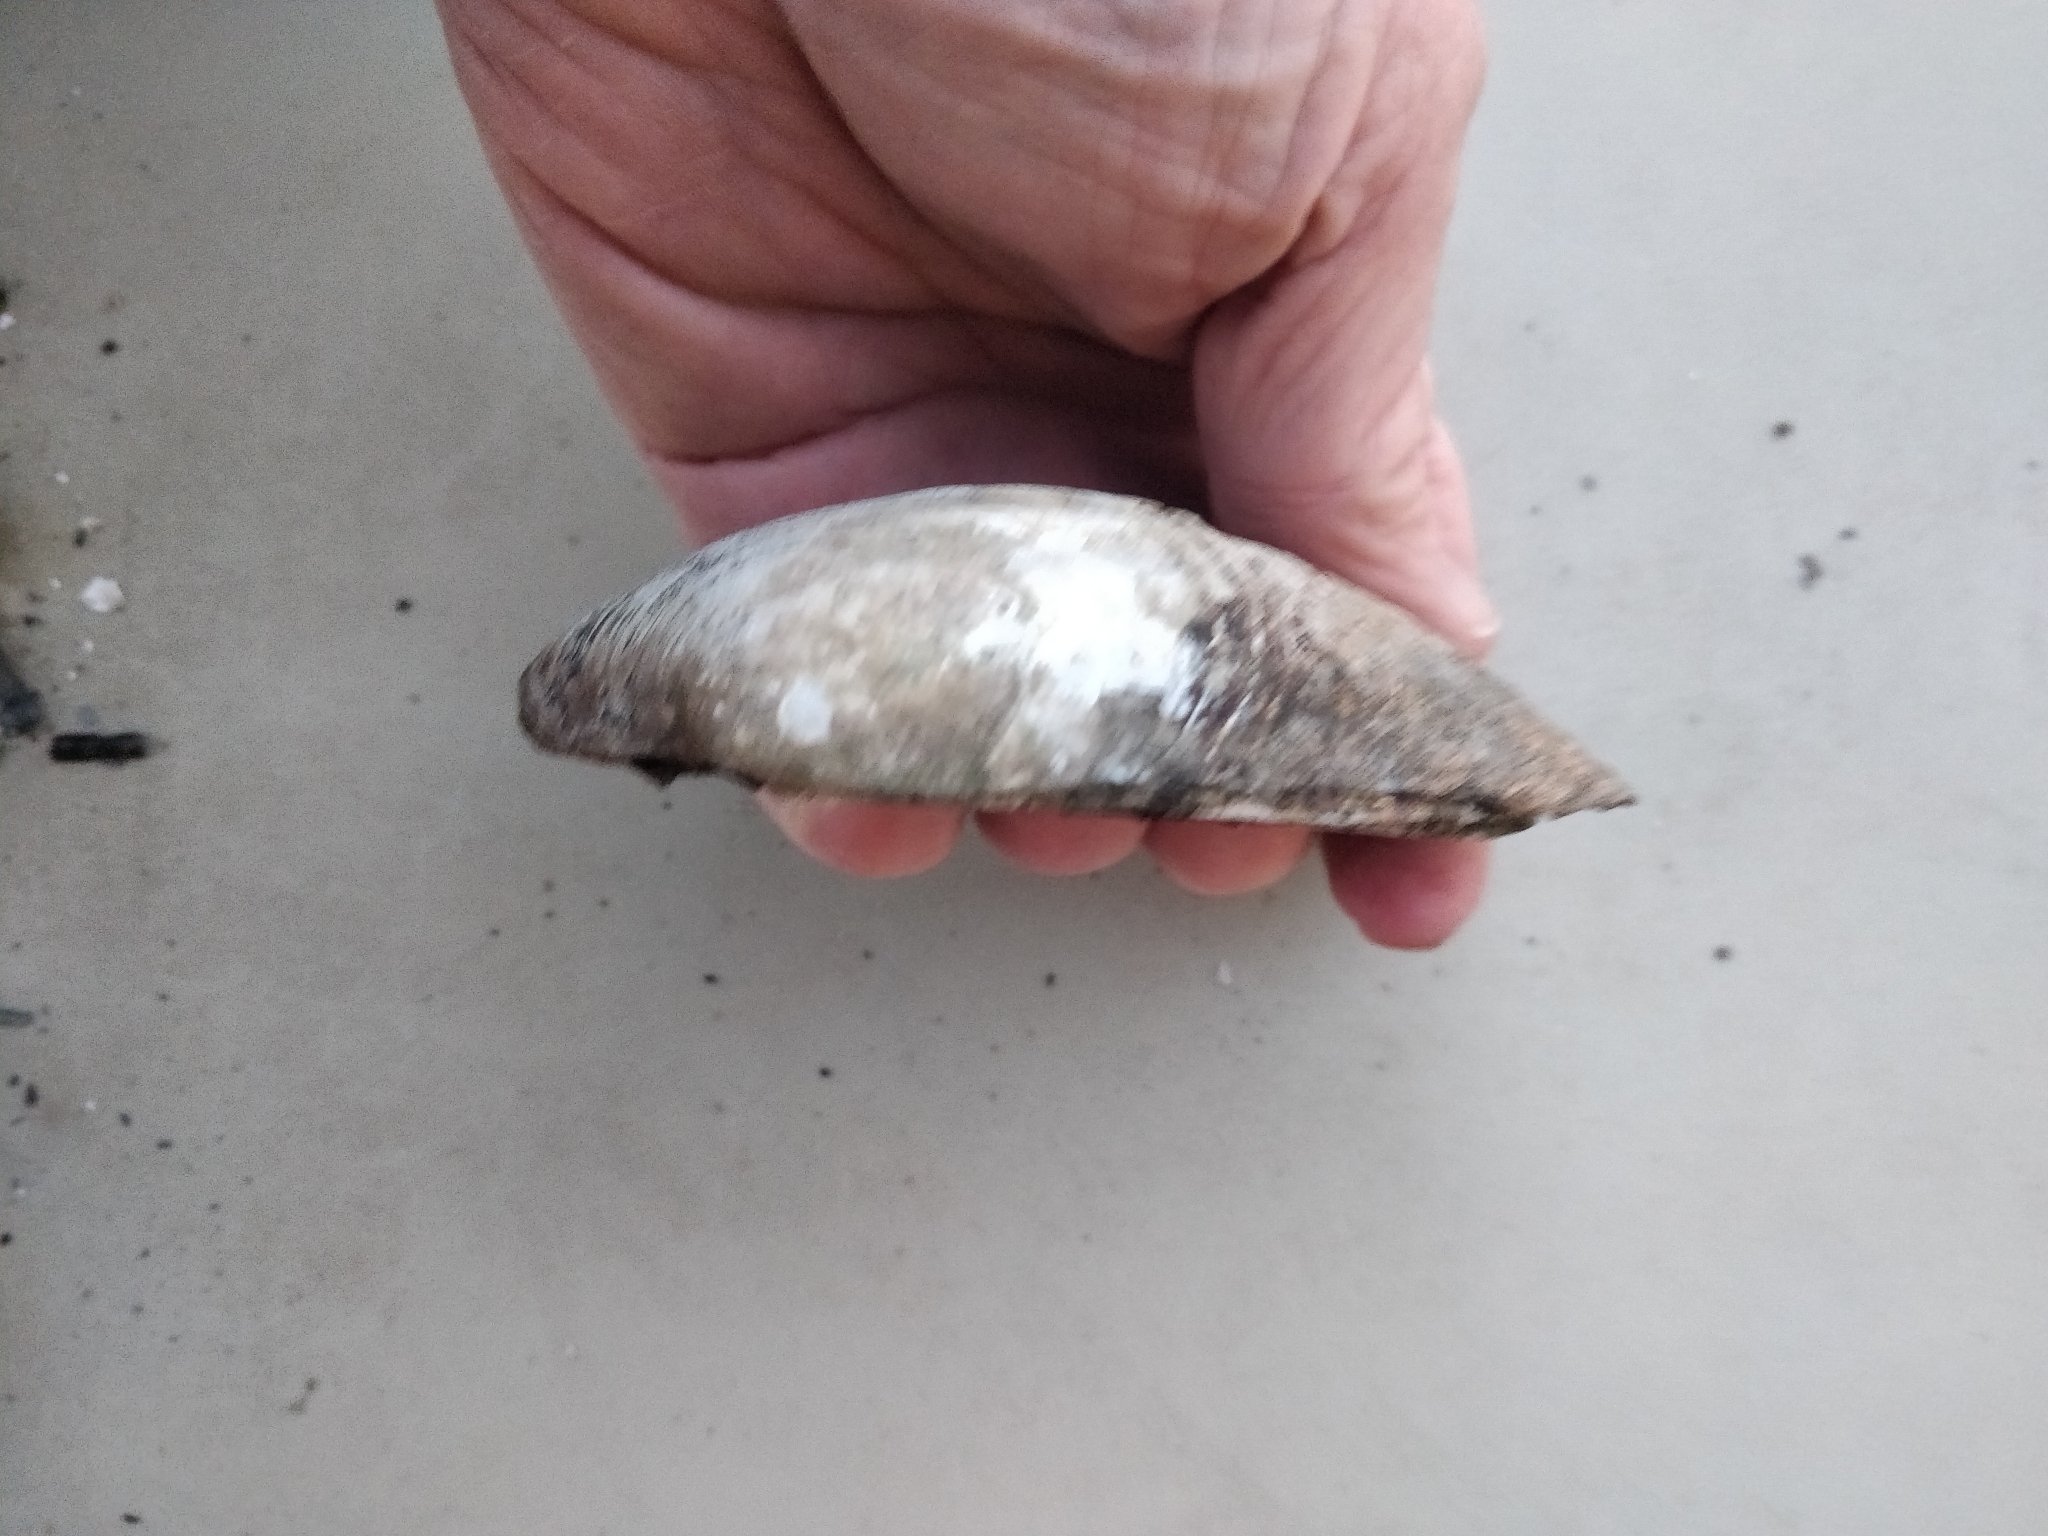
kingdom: Animalia
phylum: Mollusca
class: Bivalvia
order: Unionida
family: Unionidae
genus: Amblema
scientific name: Amblema plicata
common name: Threeridge
